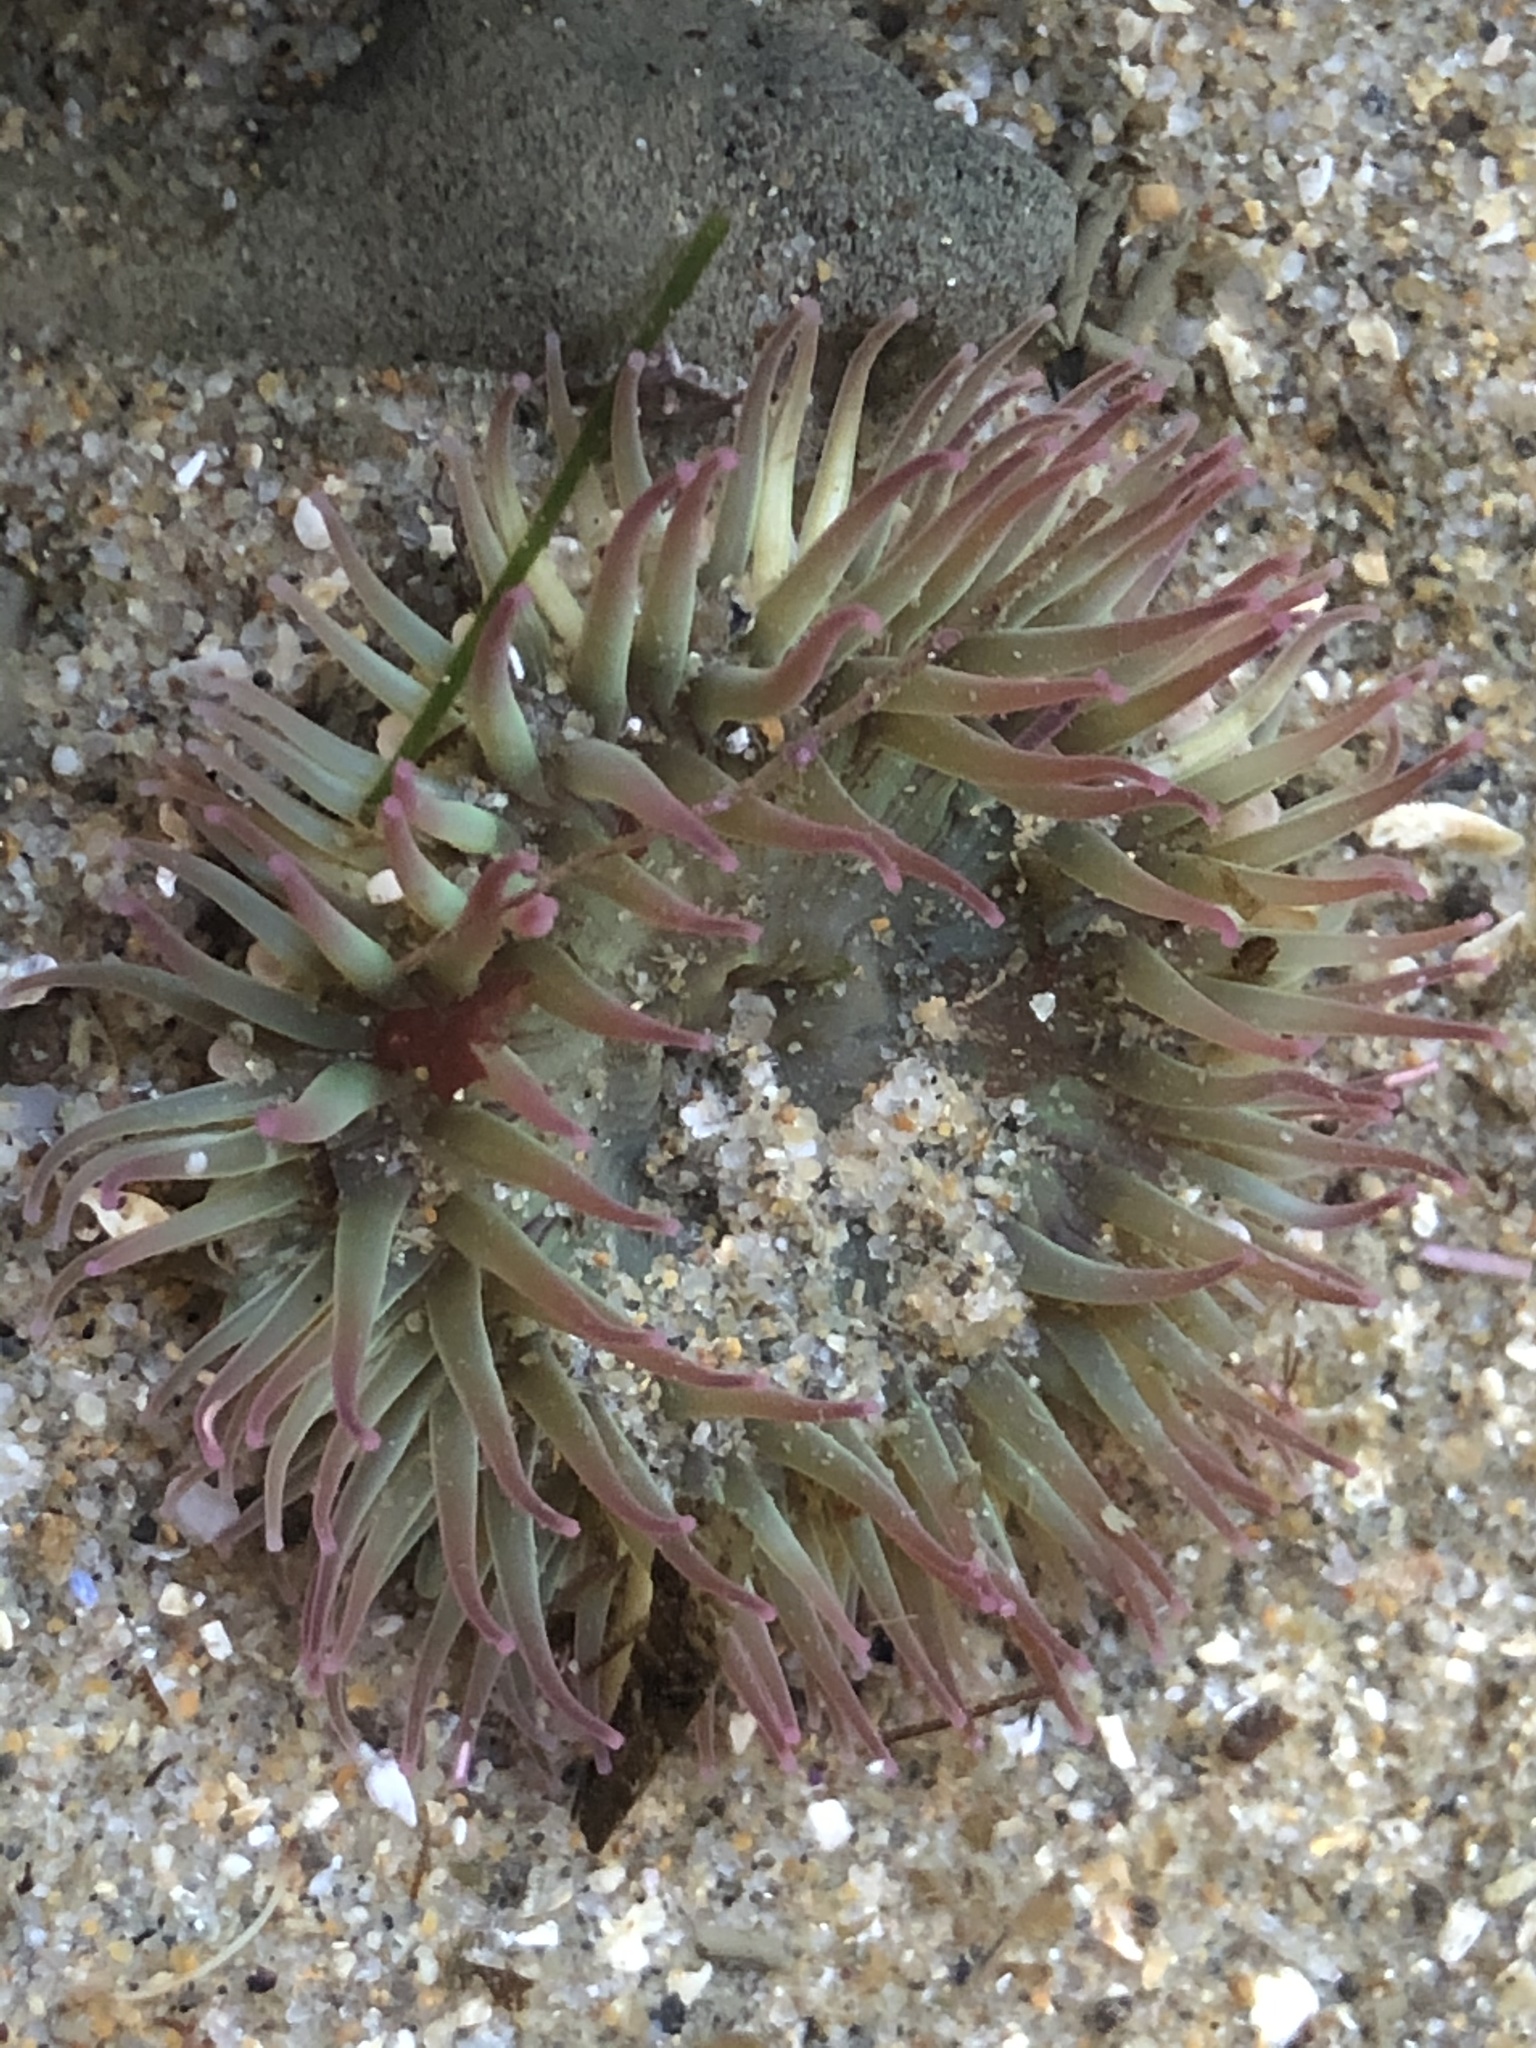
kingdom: Animalia
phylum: Cnidaria
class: Anthozoa
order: Actiniaria
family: Actiniidae
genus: Anthopleura
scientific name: Anthopleura elegantissima
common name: Clonal anemone
